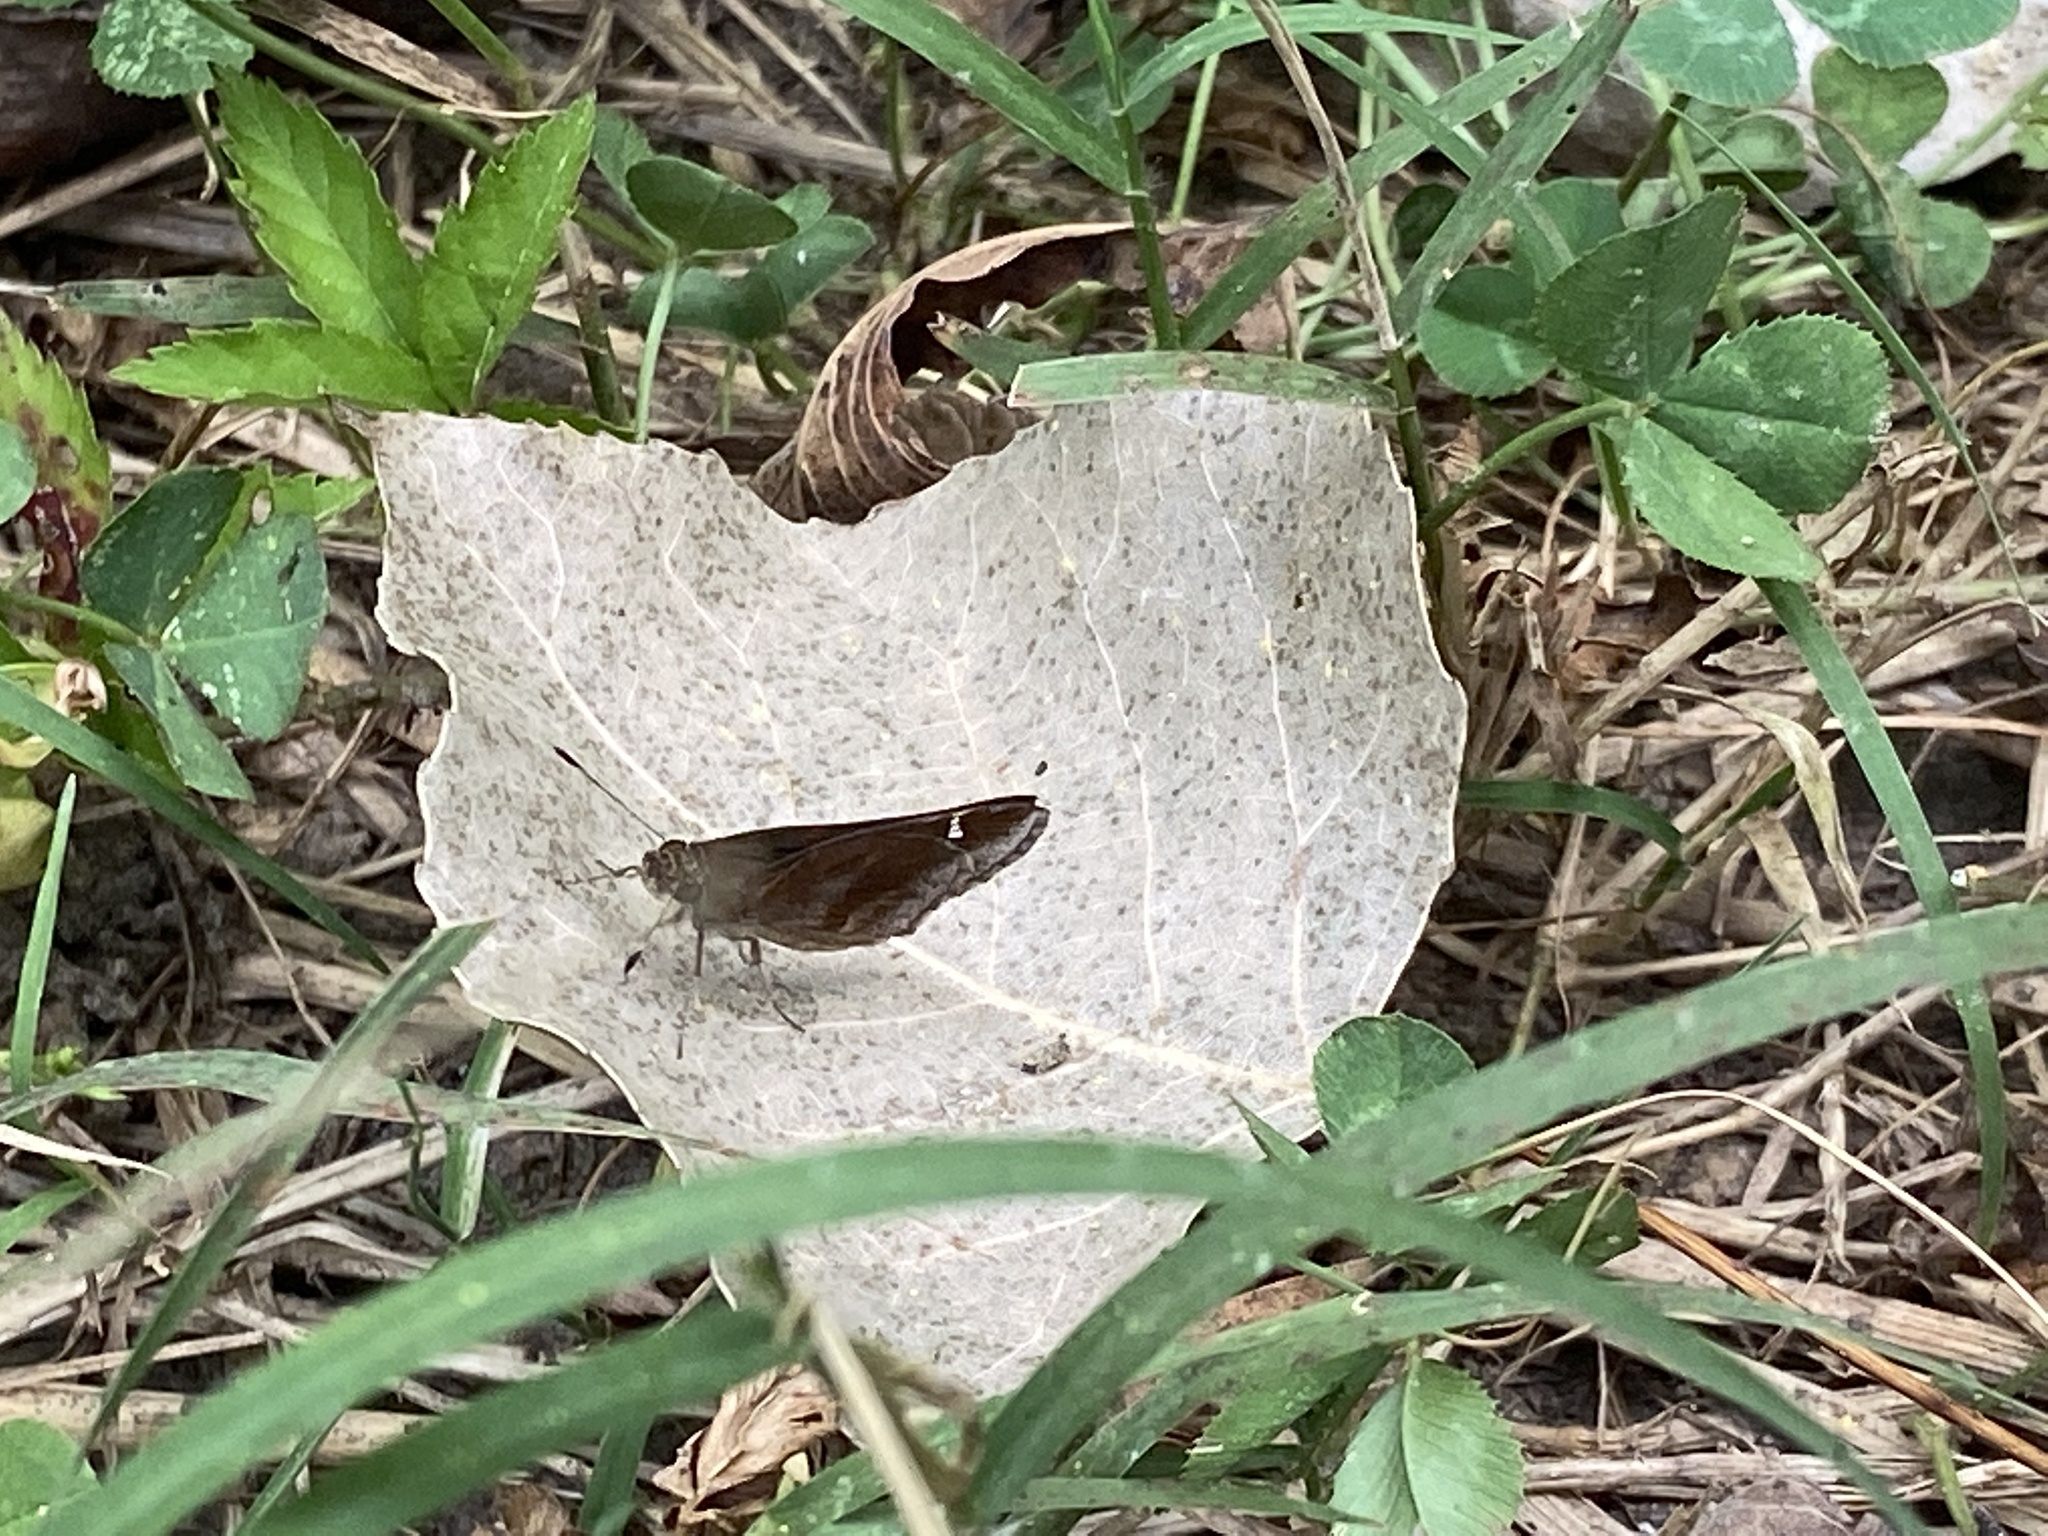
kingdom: Animalia
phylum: Arthropoda
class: Insecta
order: Lepidoptera
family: Hesperiidae
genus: Lerema
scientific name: Lerema accius
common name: Clouded skipper
